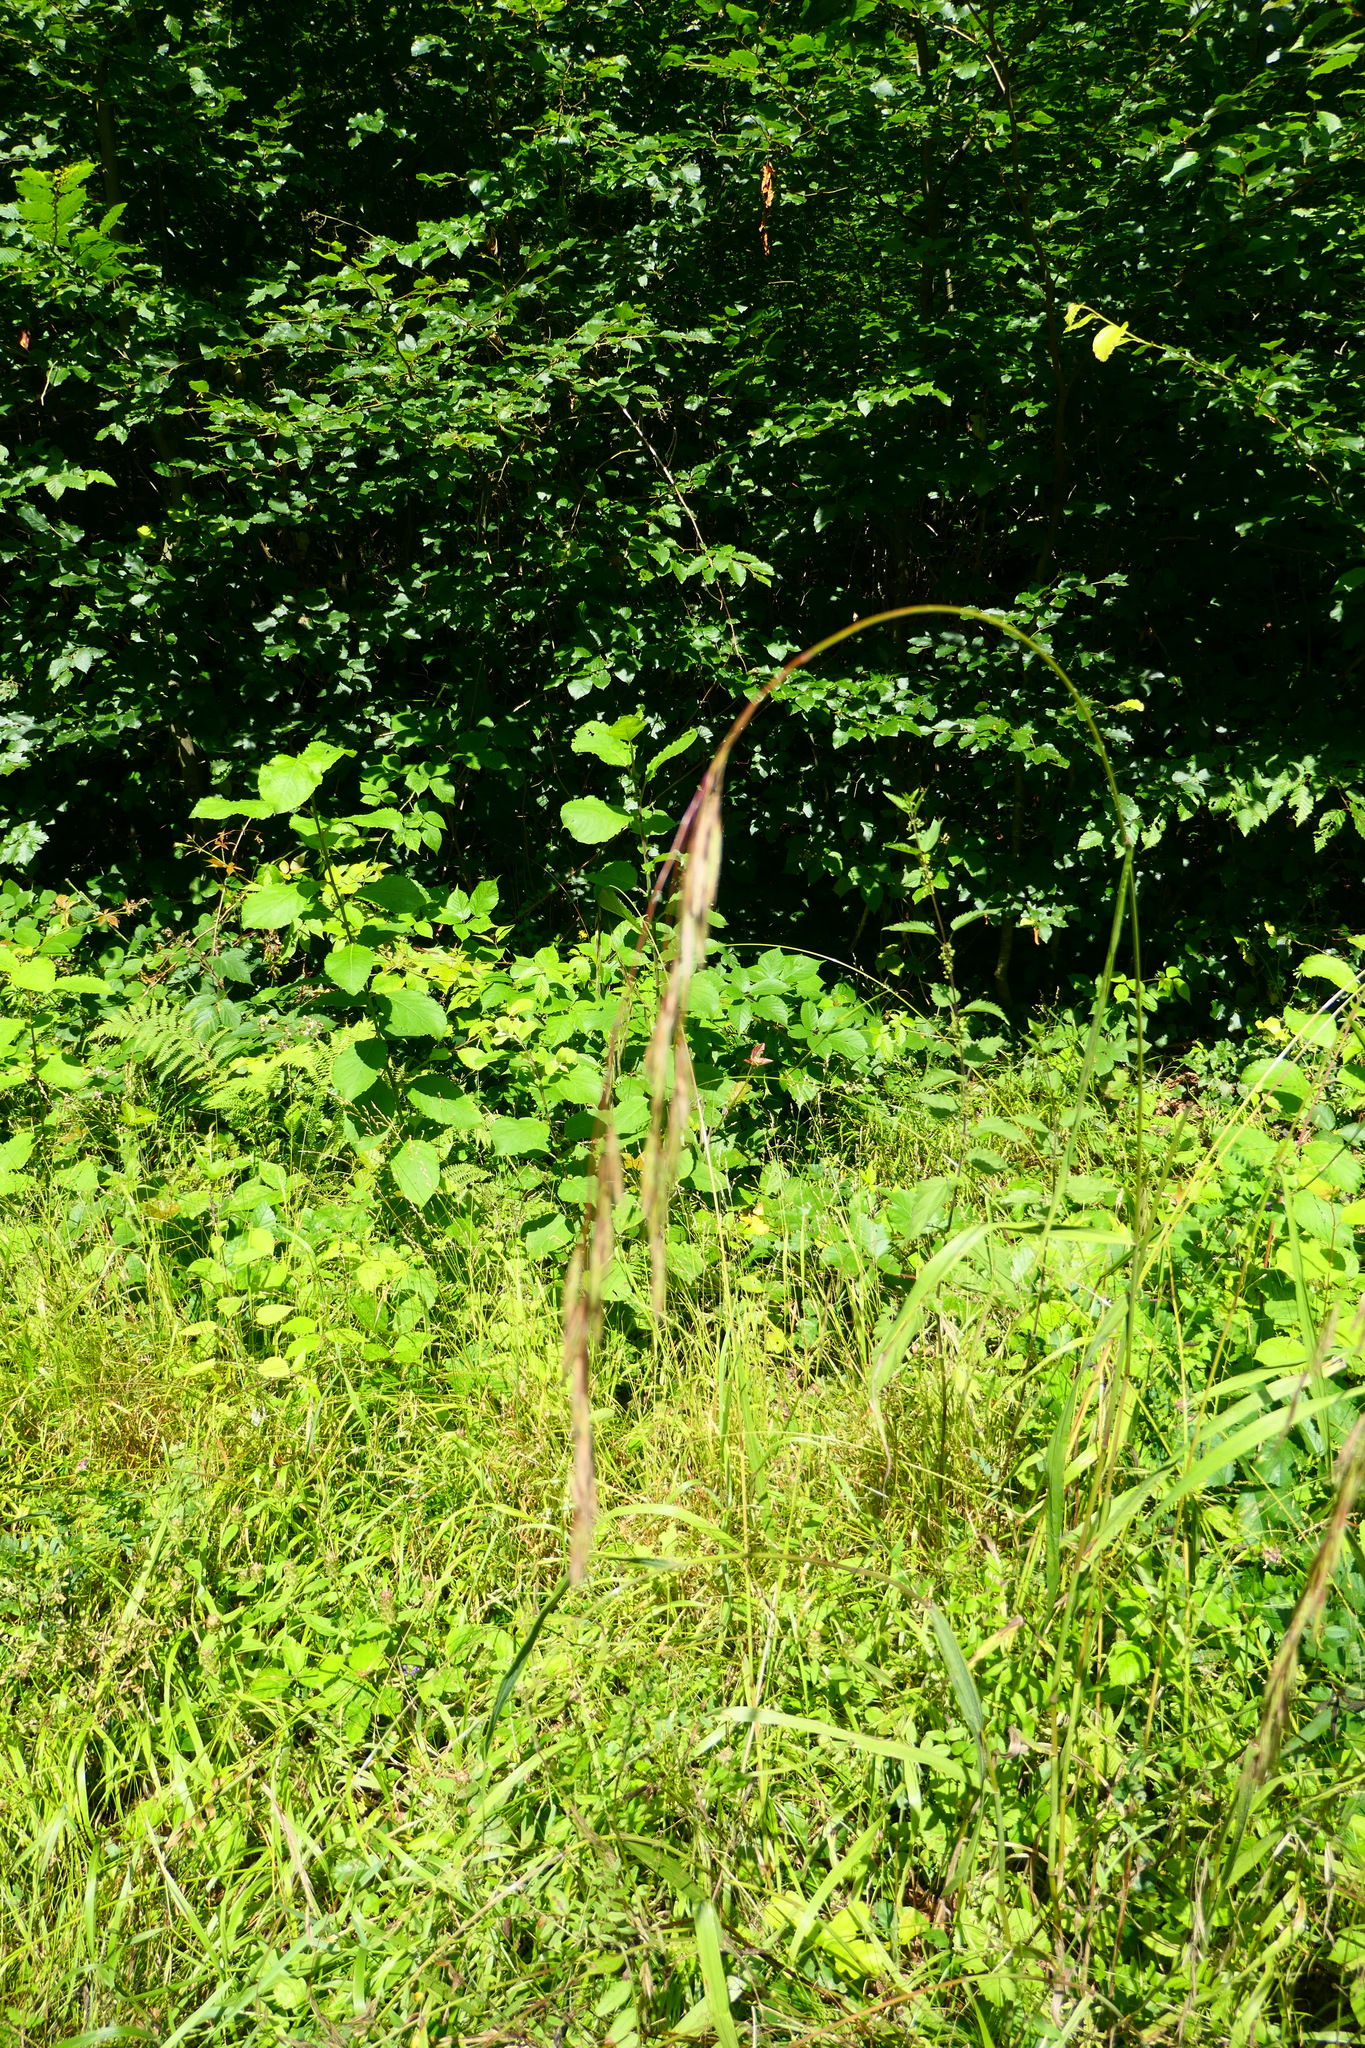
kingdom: Plantae
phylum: Tracheophyta
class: Liliopsida
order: Poales
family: Poaceae
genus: Festuca
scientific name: Festuca altissima
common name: Wood fescue
